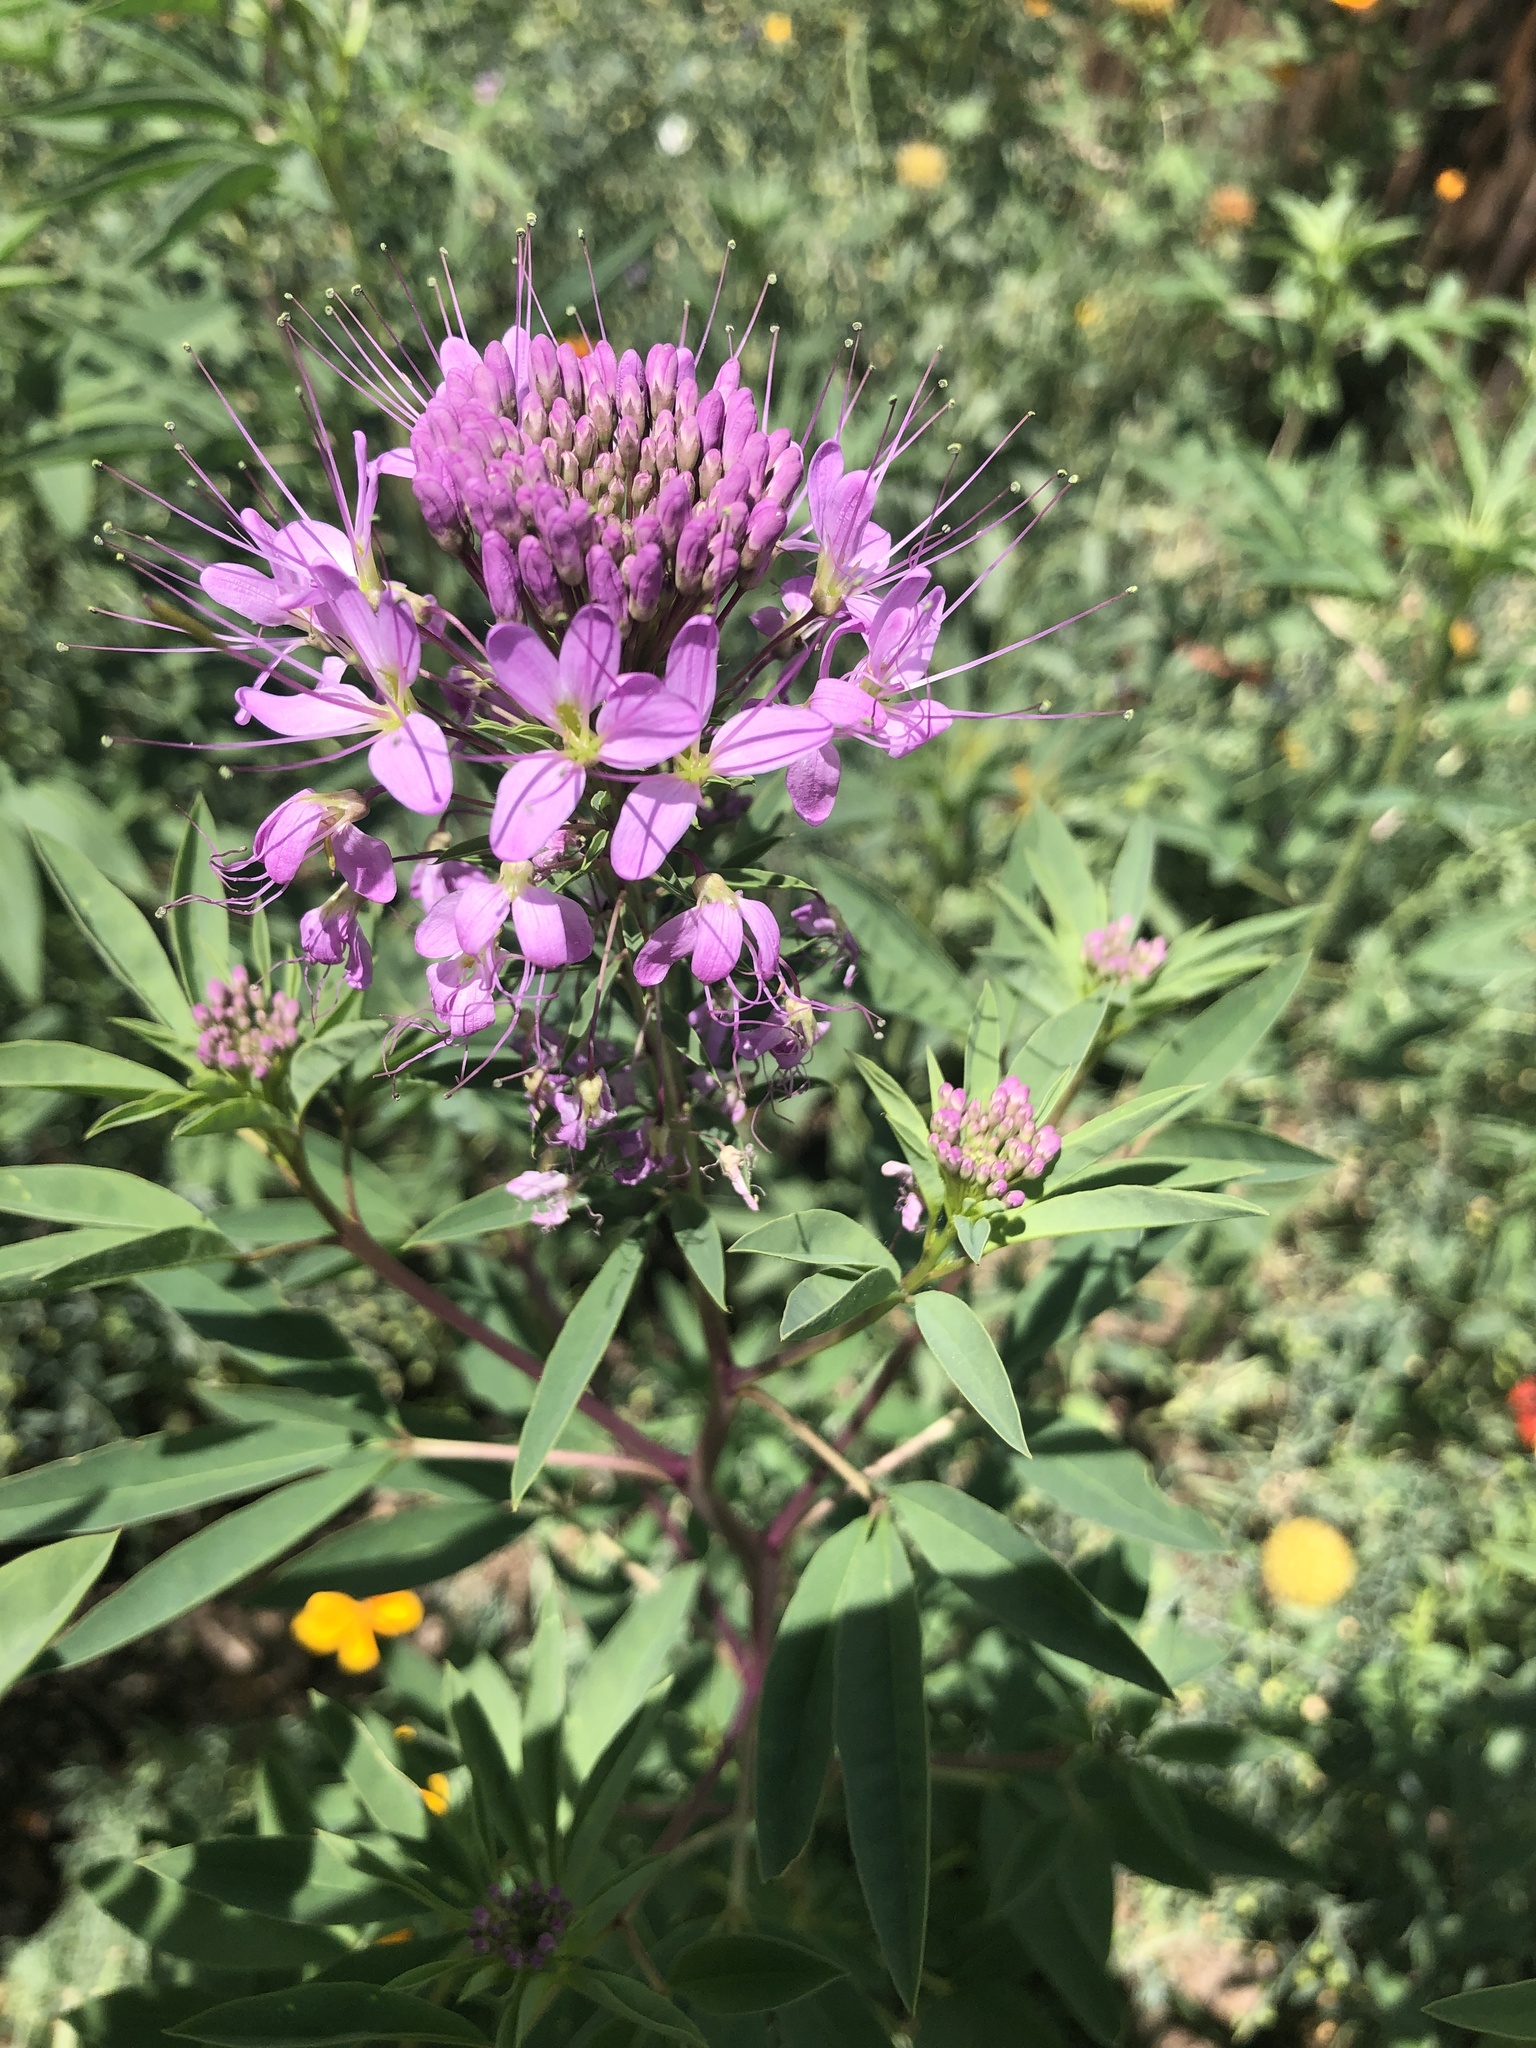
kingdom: Plantae
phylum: Tracheophyta
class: Magnoliopsida
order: Brassicales
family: Cleomaceae
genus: Cleomella
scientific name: Cleomella serrulata
